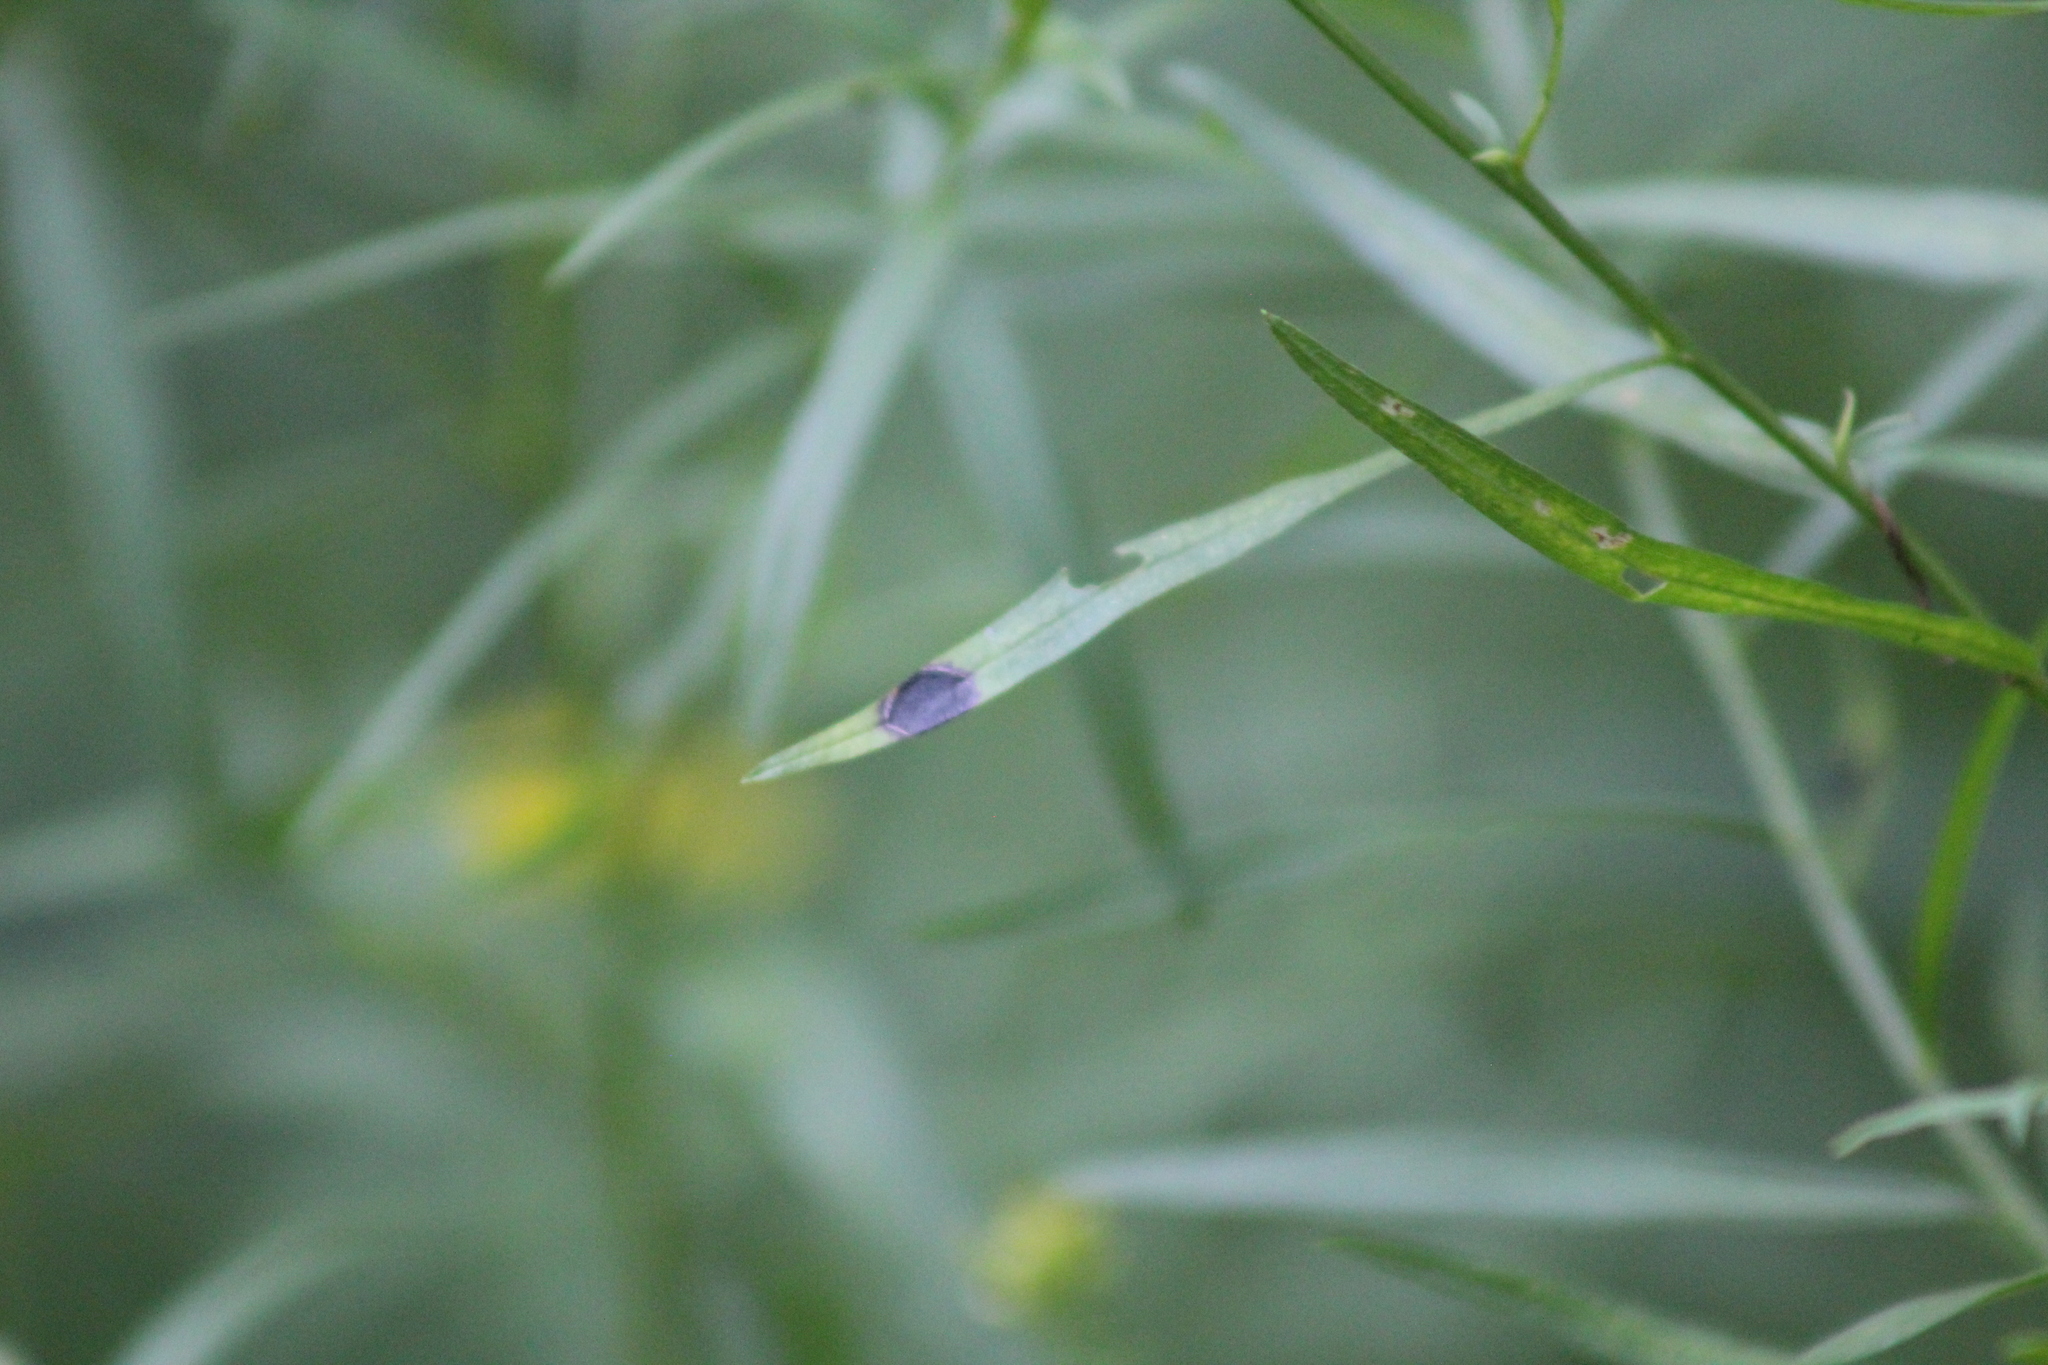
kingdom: Animalia
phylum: Arthropoda
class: Insecta
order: Diptera
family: Cecidomyiidae
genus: Asteromyia
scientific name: Asteromyia euthamiae
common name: Euthamia leaf gall midge
